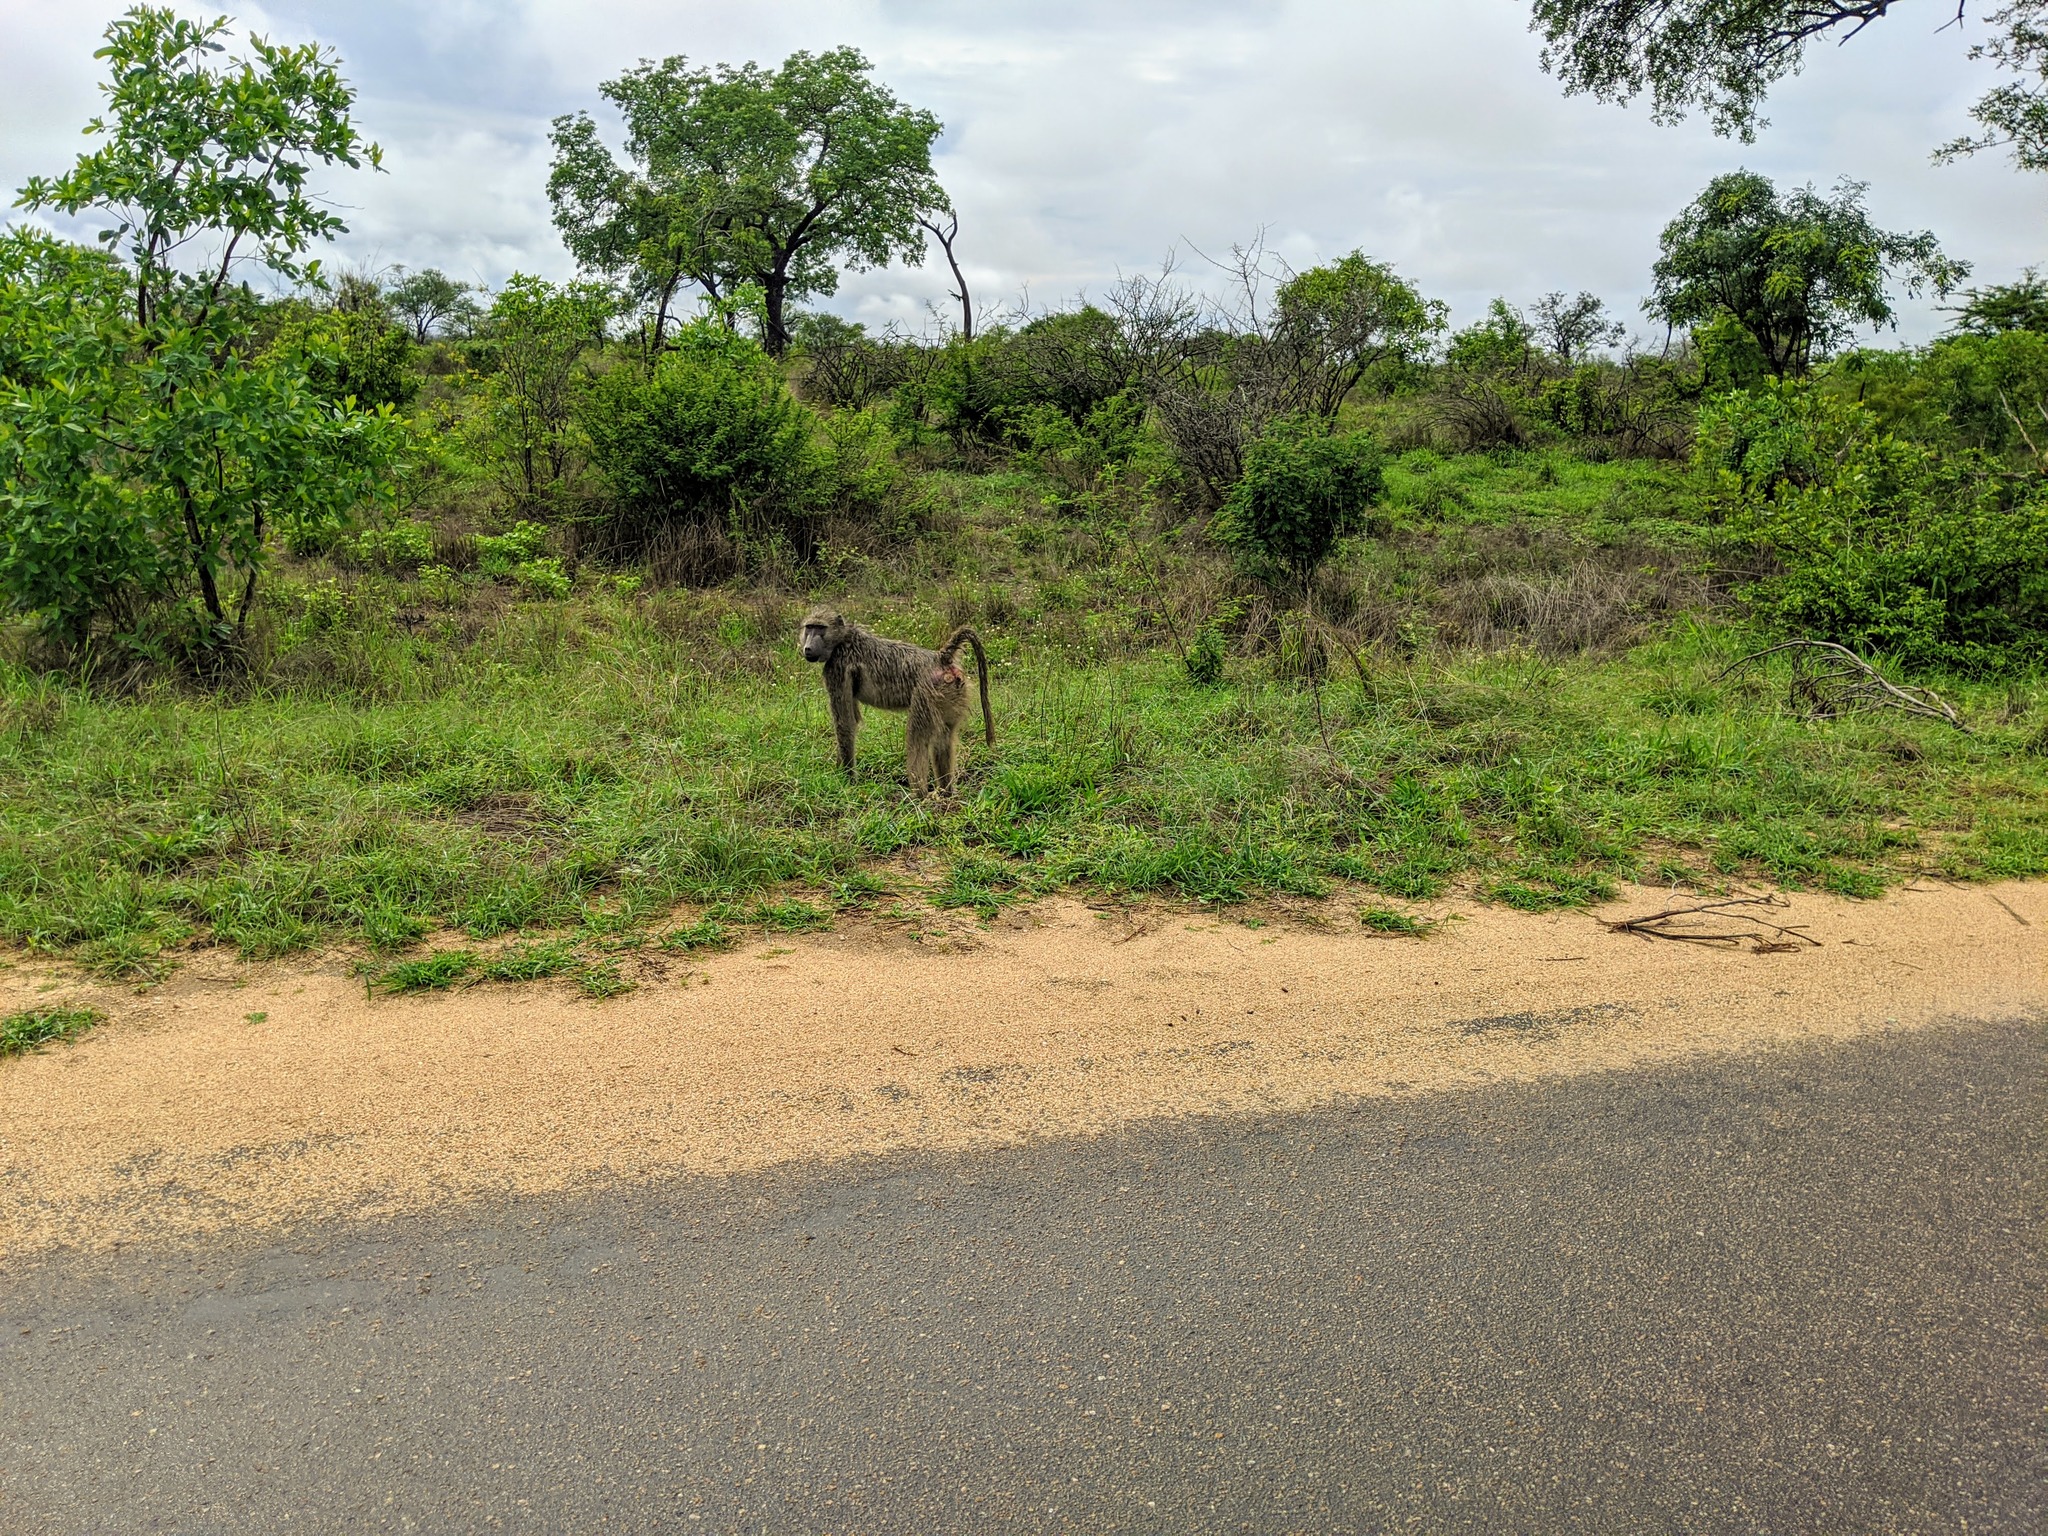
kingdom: Animalia
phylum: Chordata
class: Mammalia
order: Primates
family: Cercopithecidae
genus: Papio
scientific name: Papio ursinus
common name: Chacma baboon
